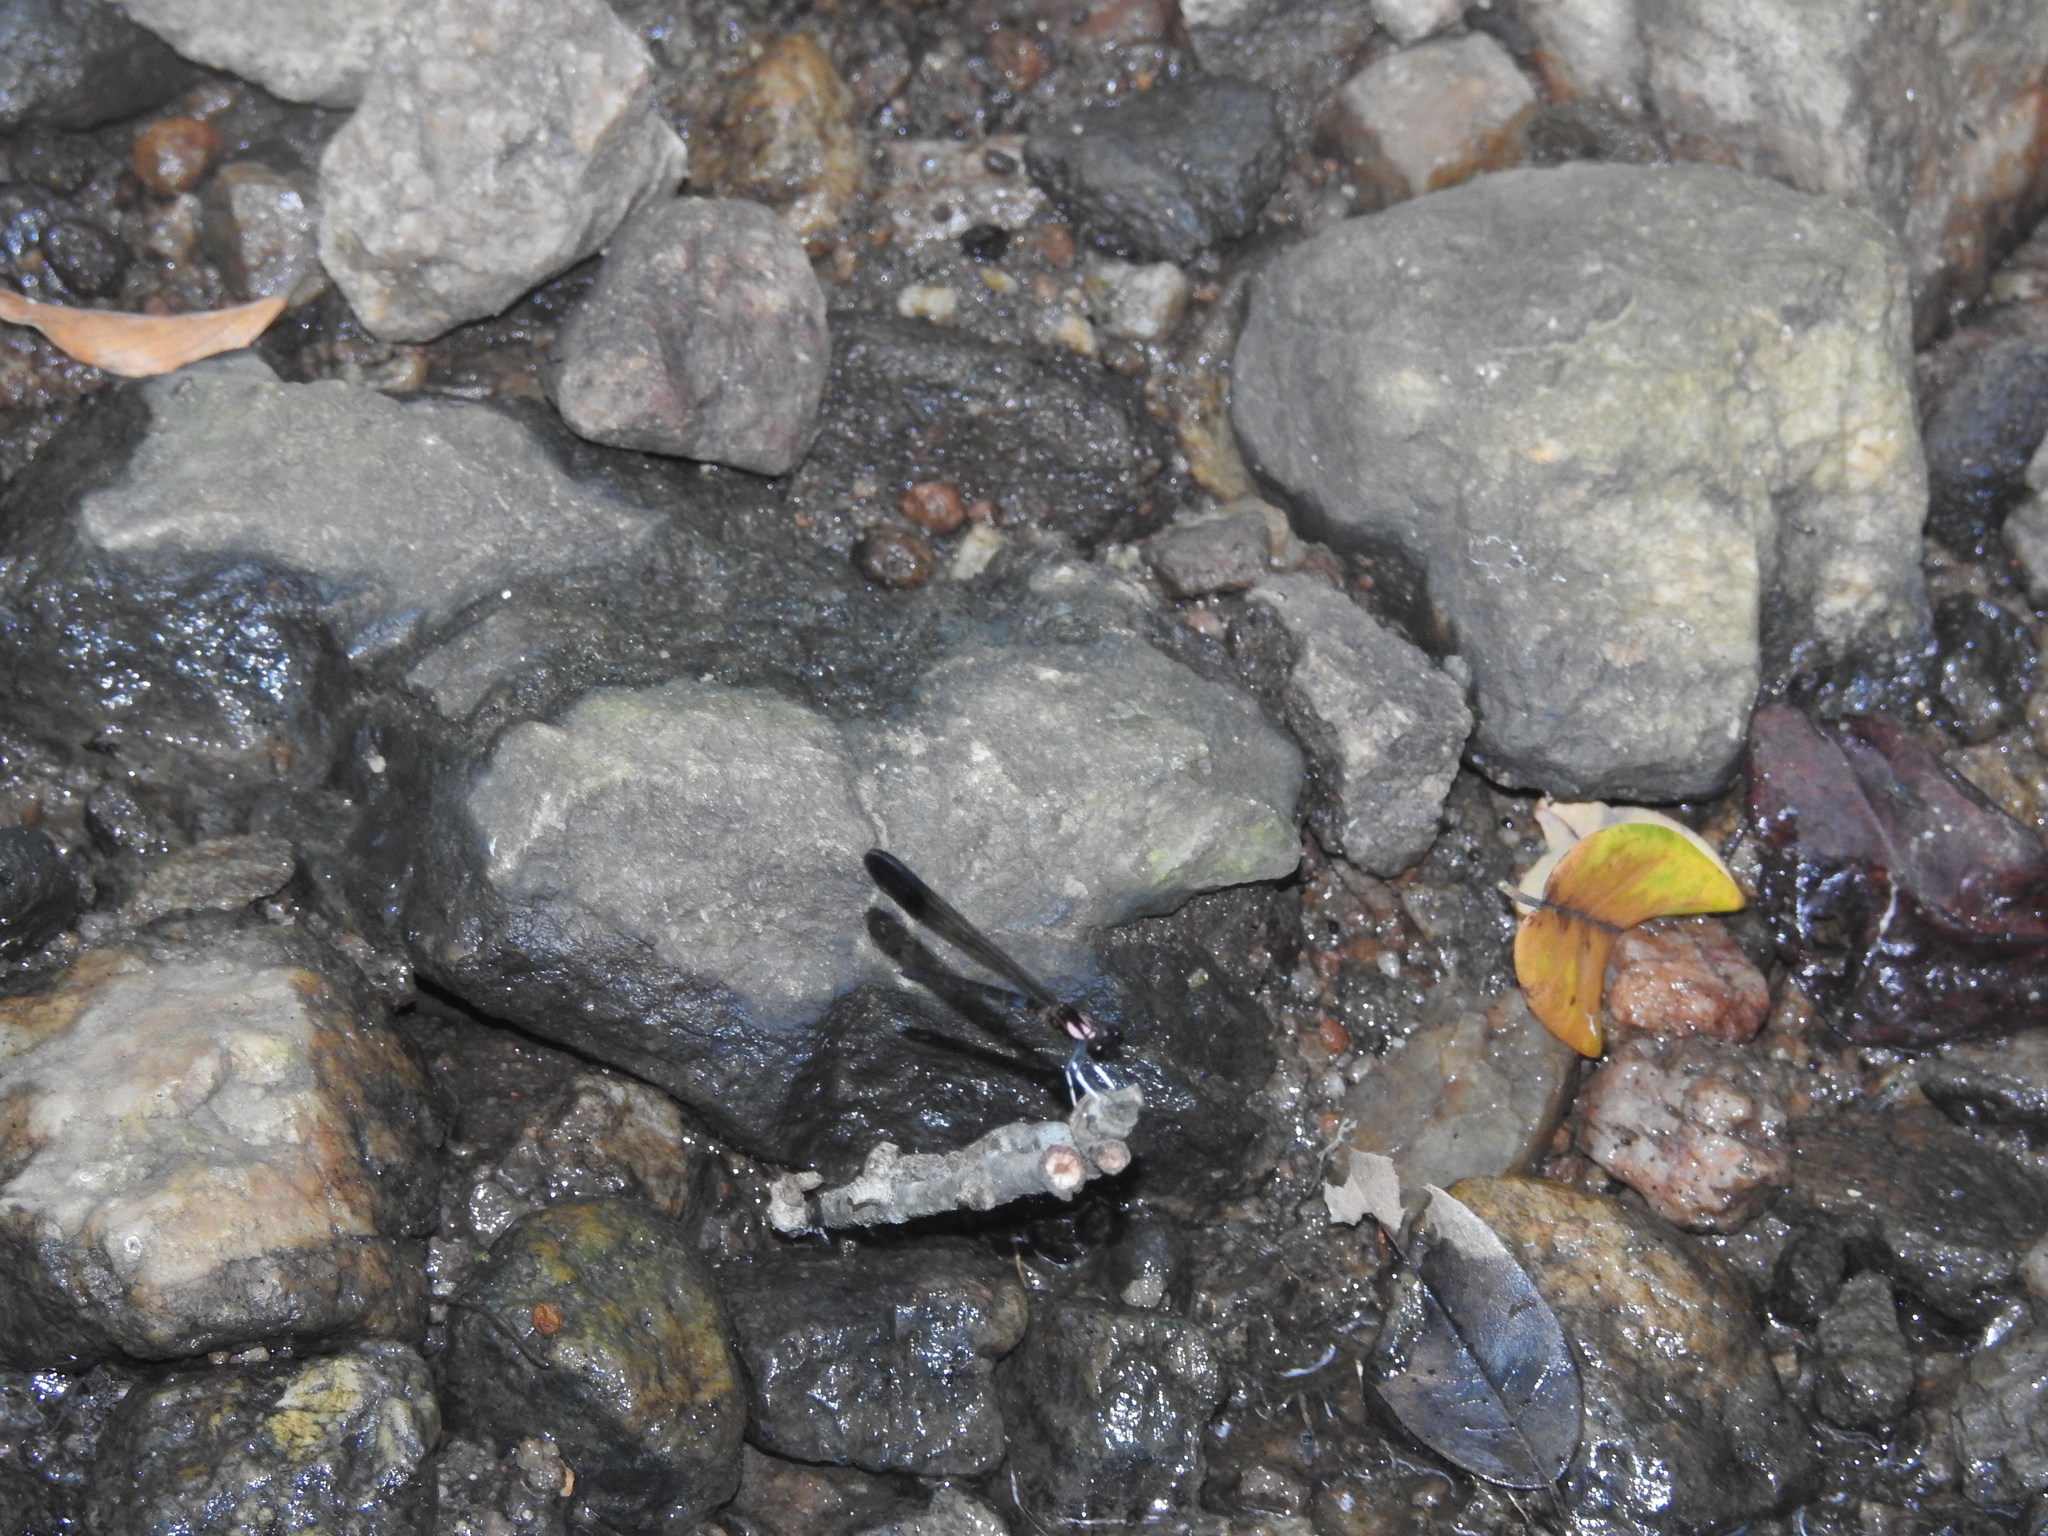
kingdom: Animalia
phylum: Arthropoda
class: Insecta
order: Odonata
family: Chlorocyphidae
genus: Heliocypha
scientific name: Heliocypha bisignata
